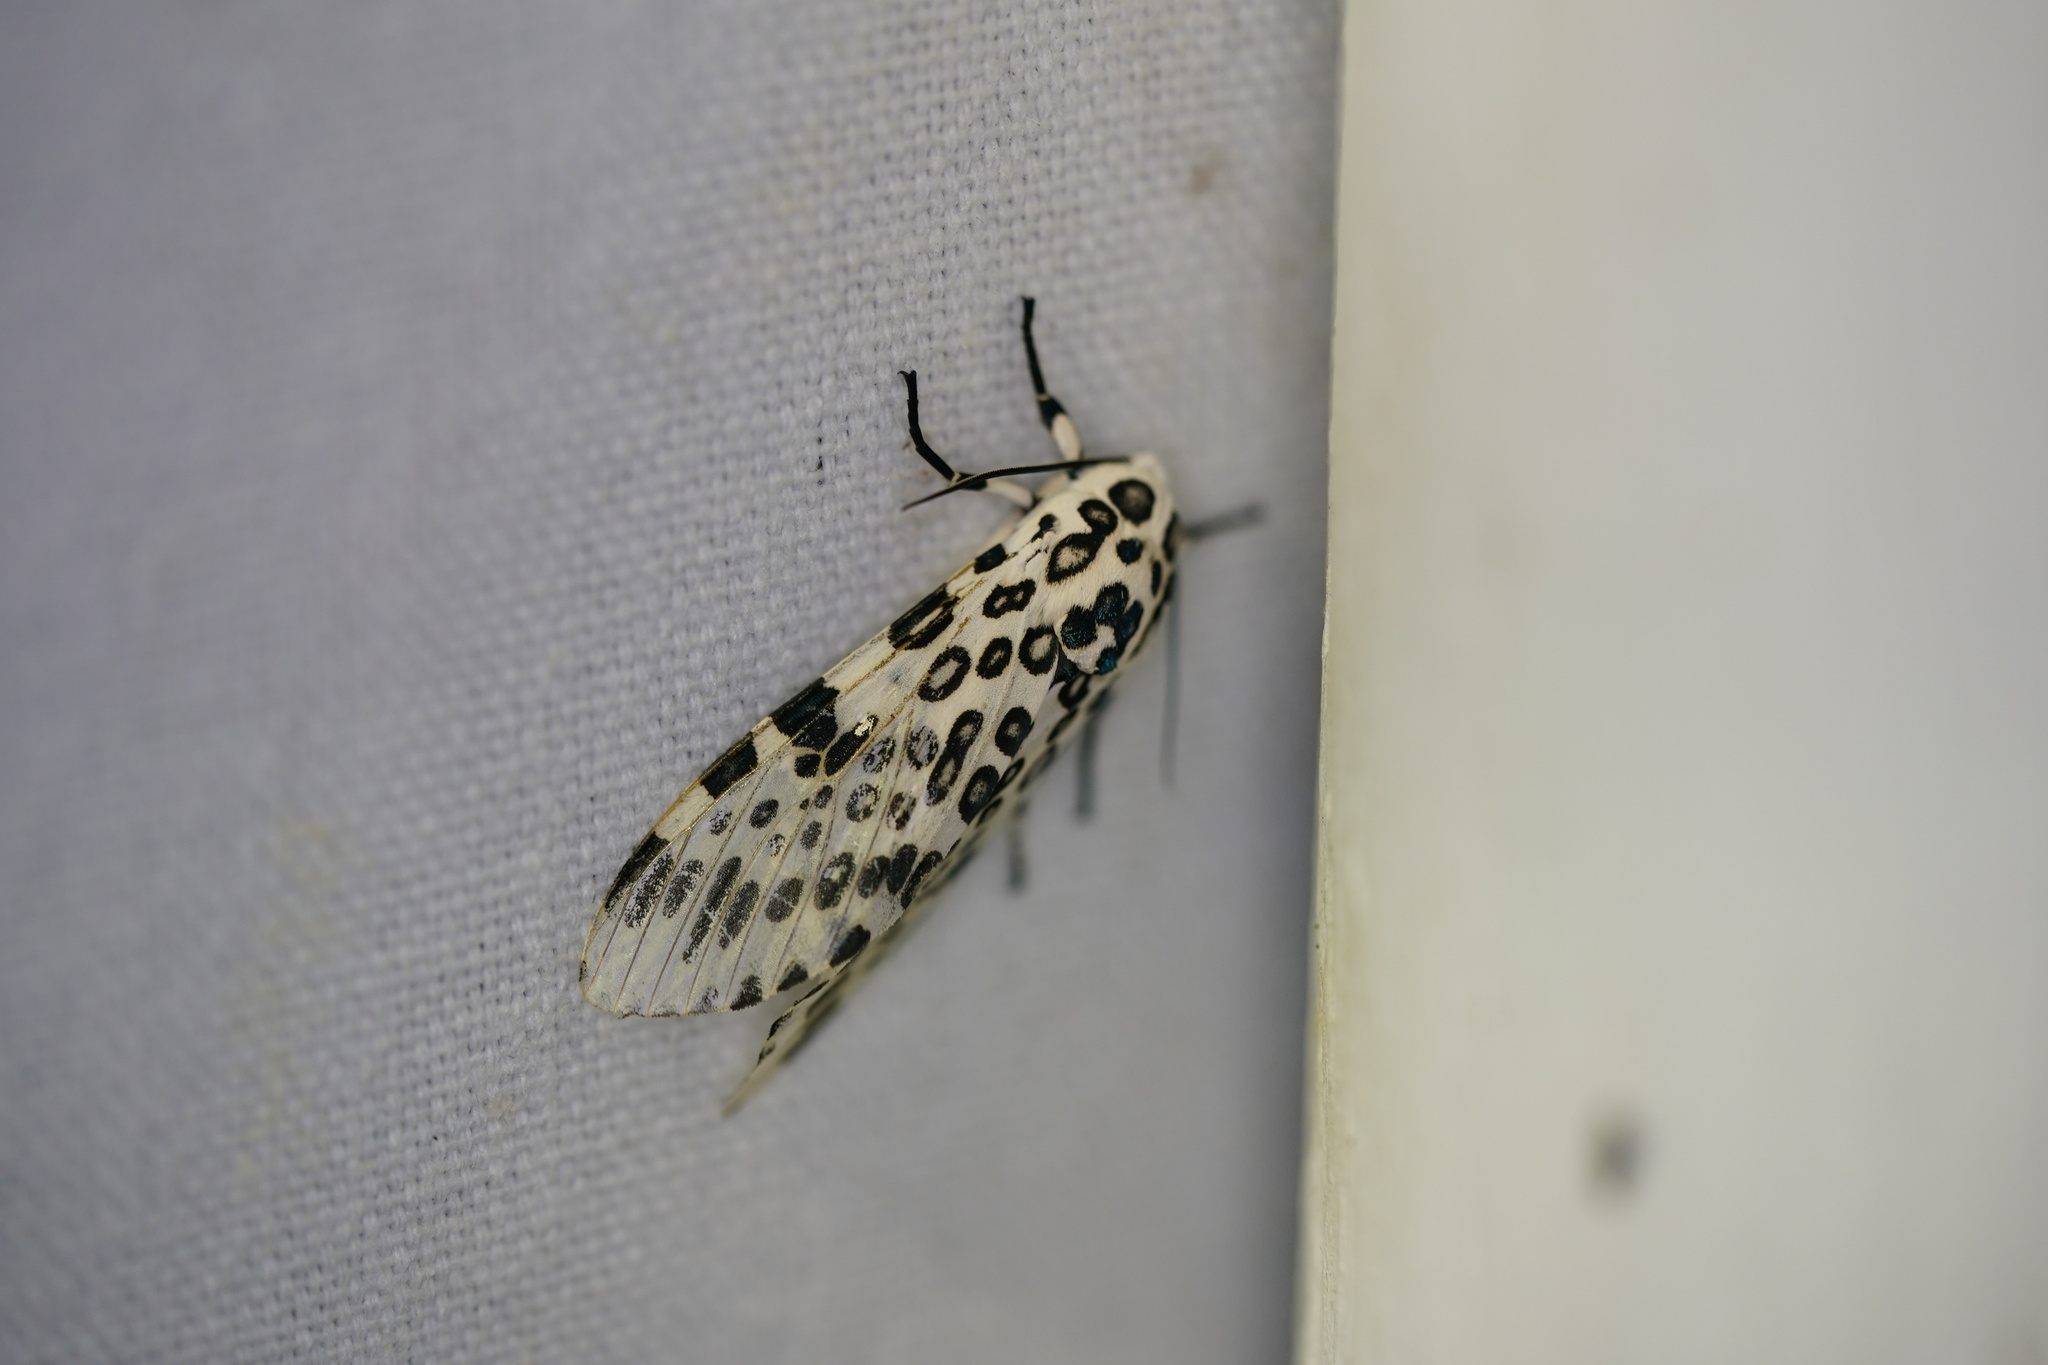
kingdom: Animalia
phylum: Arthropoda
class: Insecta
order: Lepidoptera
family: Erebidae
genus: Hypercompe
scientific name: Hypercompe scribonia
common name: Giant leopard moth
